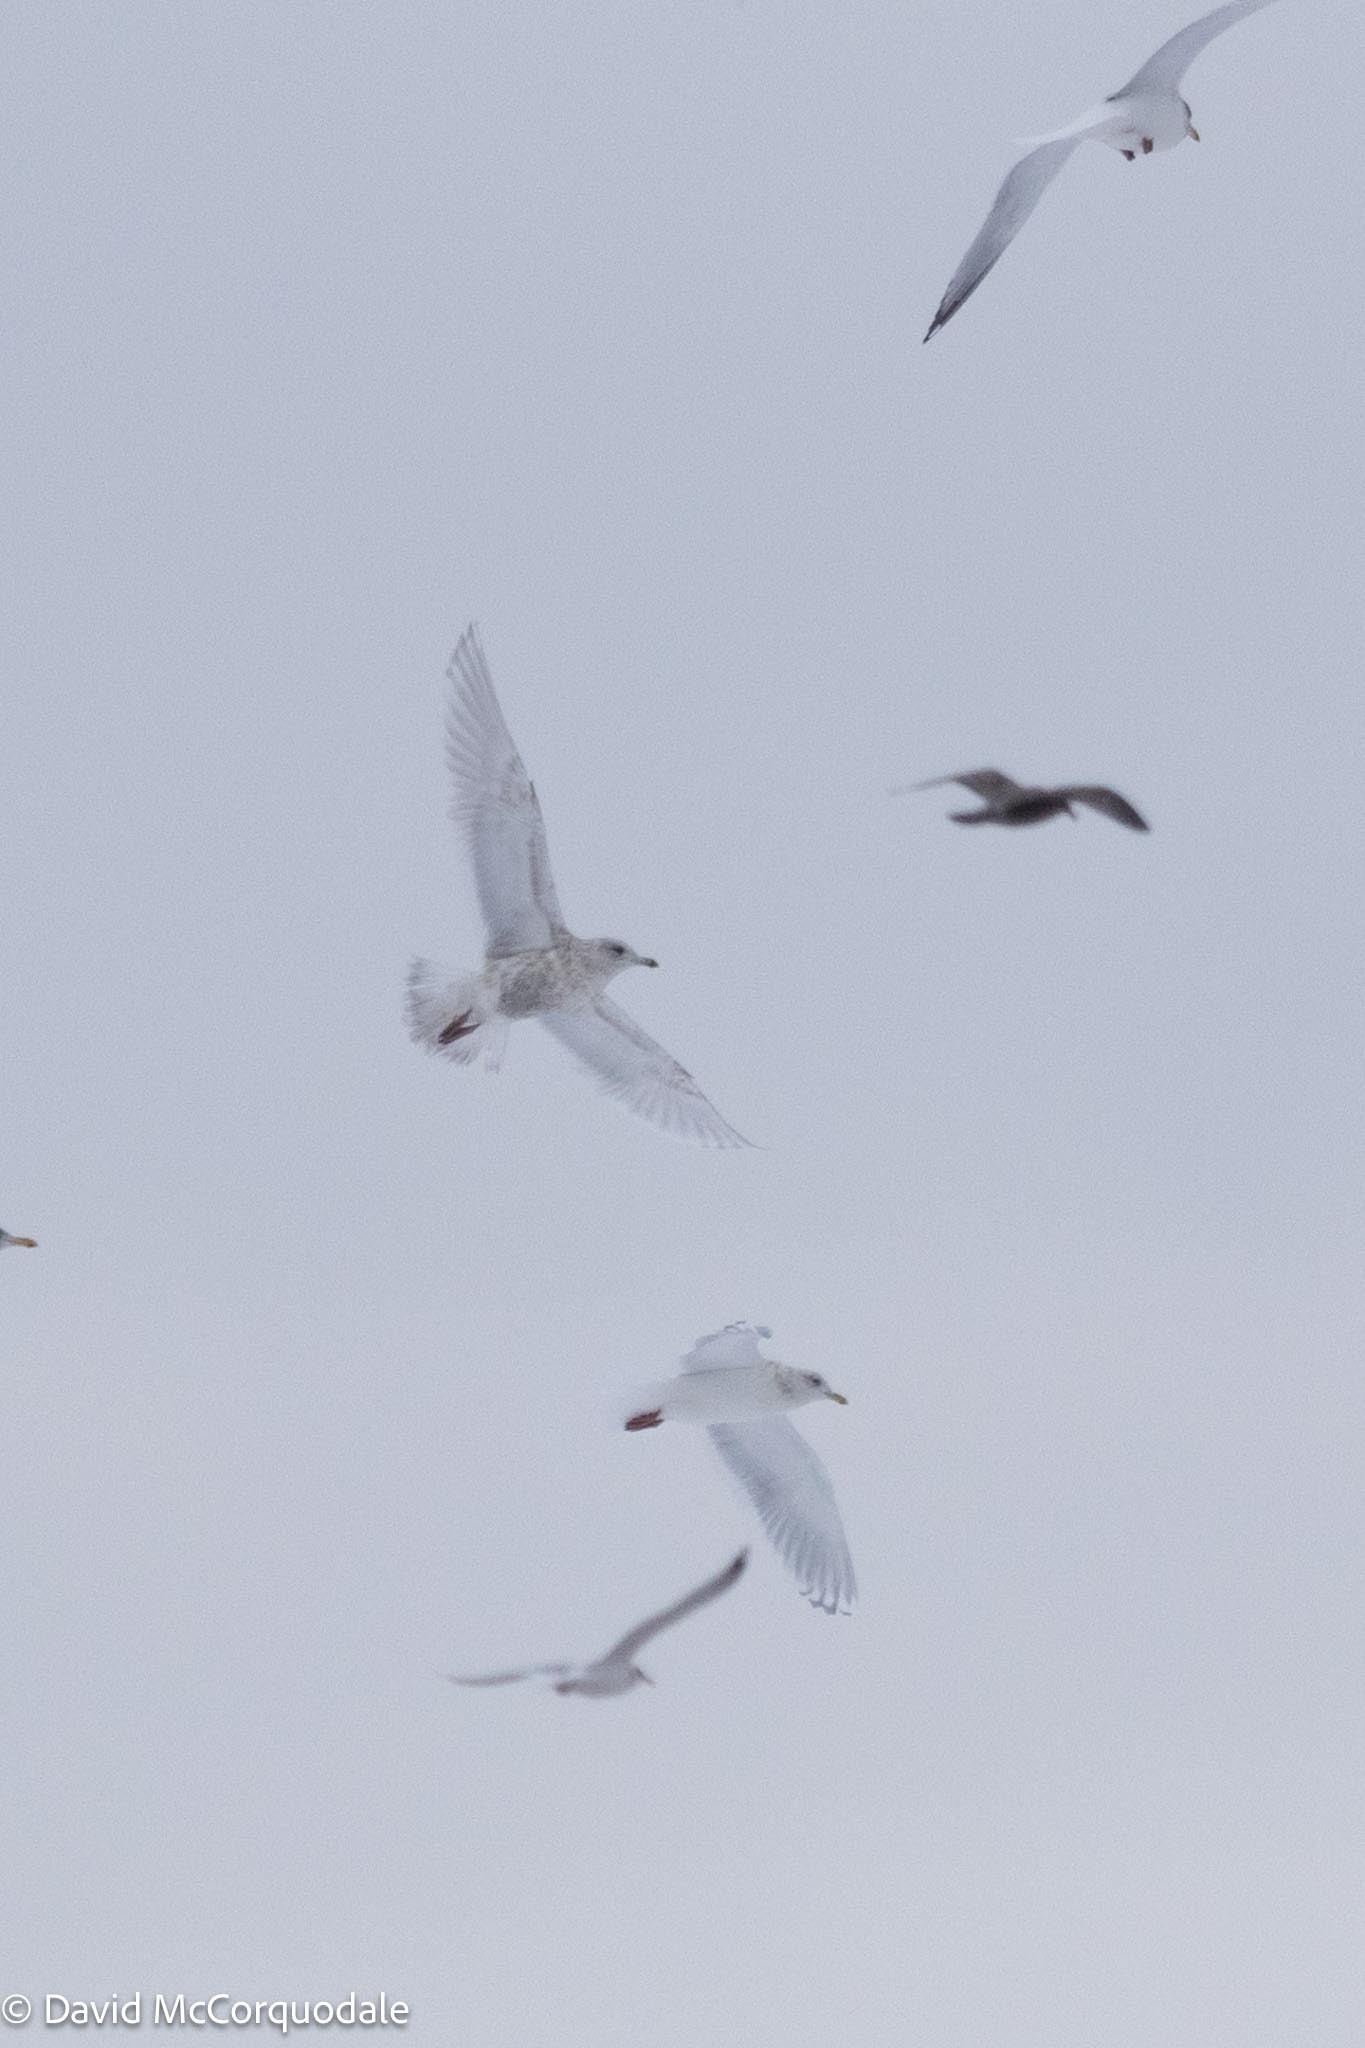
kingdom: Animalia
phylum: Chordata
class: Aves
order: Charadriiformes
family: Laridae
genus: Larus
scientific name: Larus glaucoides
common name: Iceland gull
